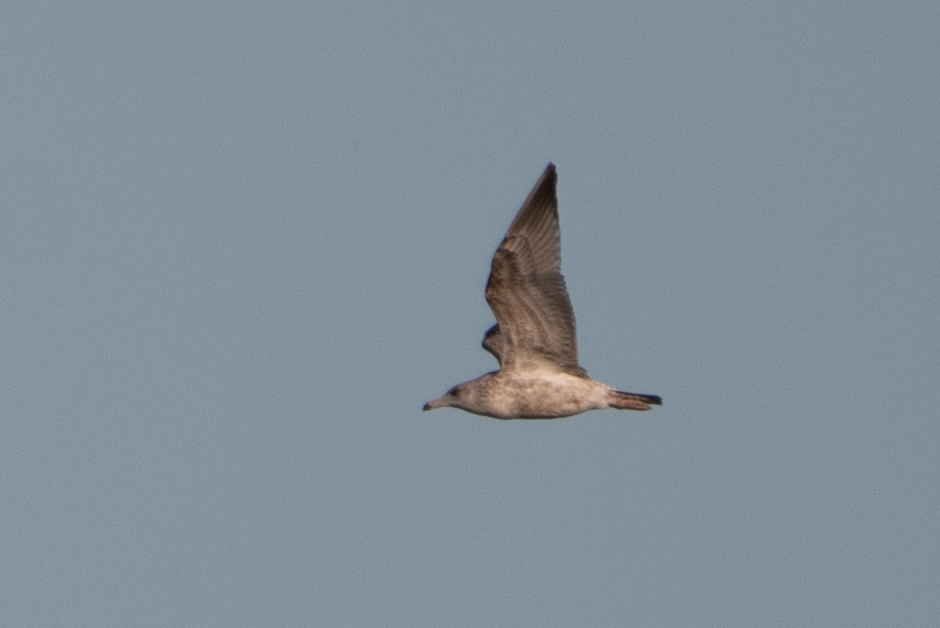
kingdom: Animalia
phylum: Chordata
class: Aves
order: Charadriiformes
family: Laridae
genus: Larus
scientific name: Larus argentatus
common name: Herring gull
